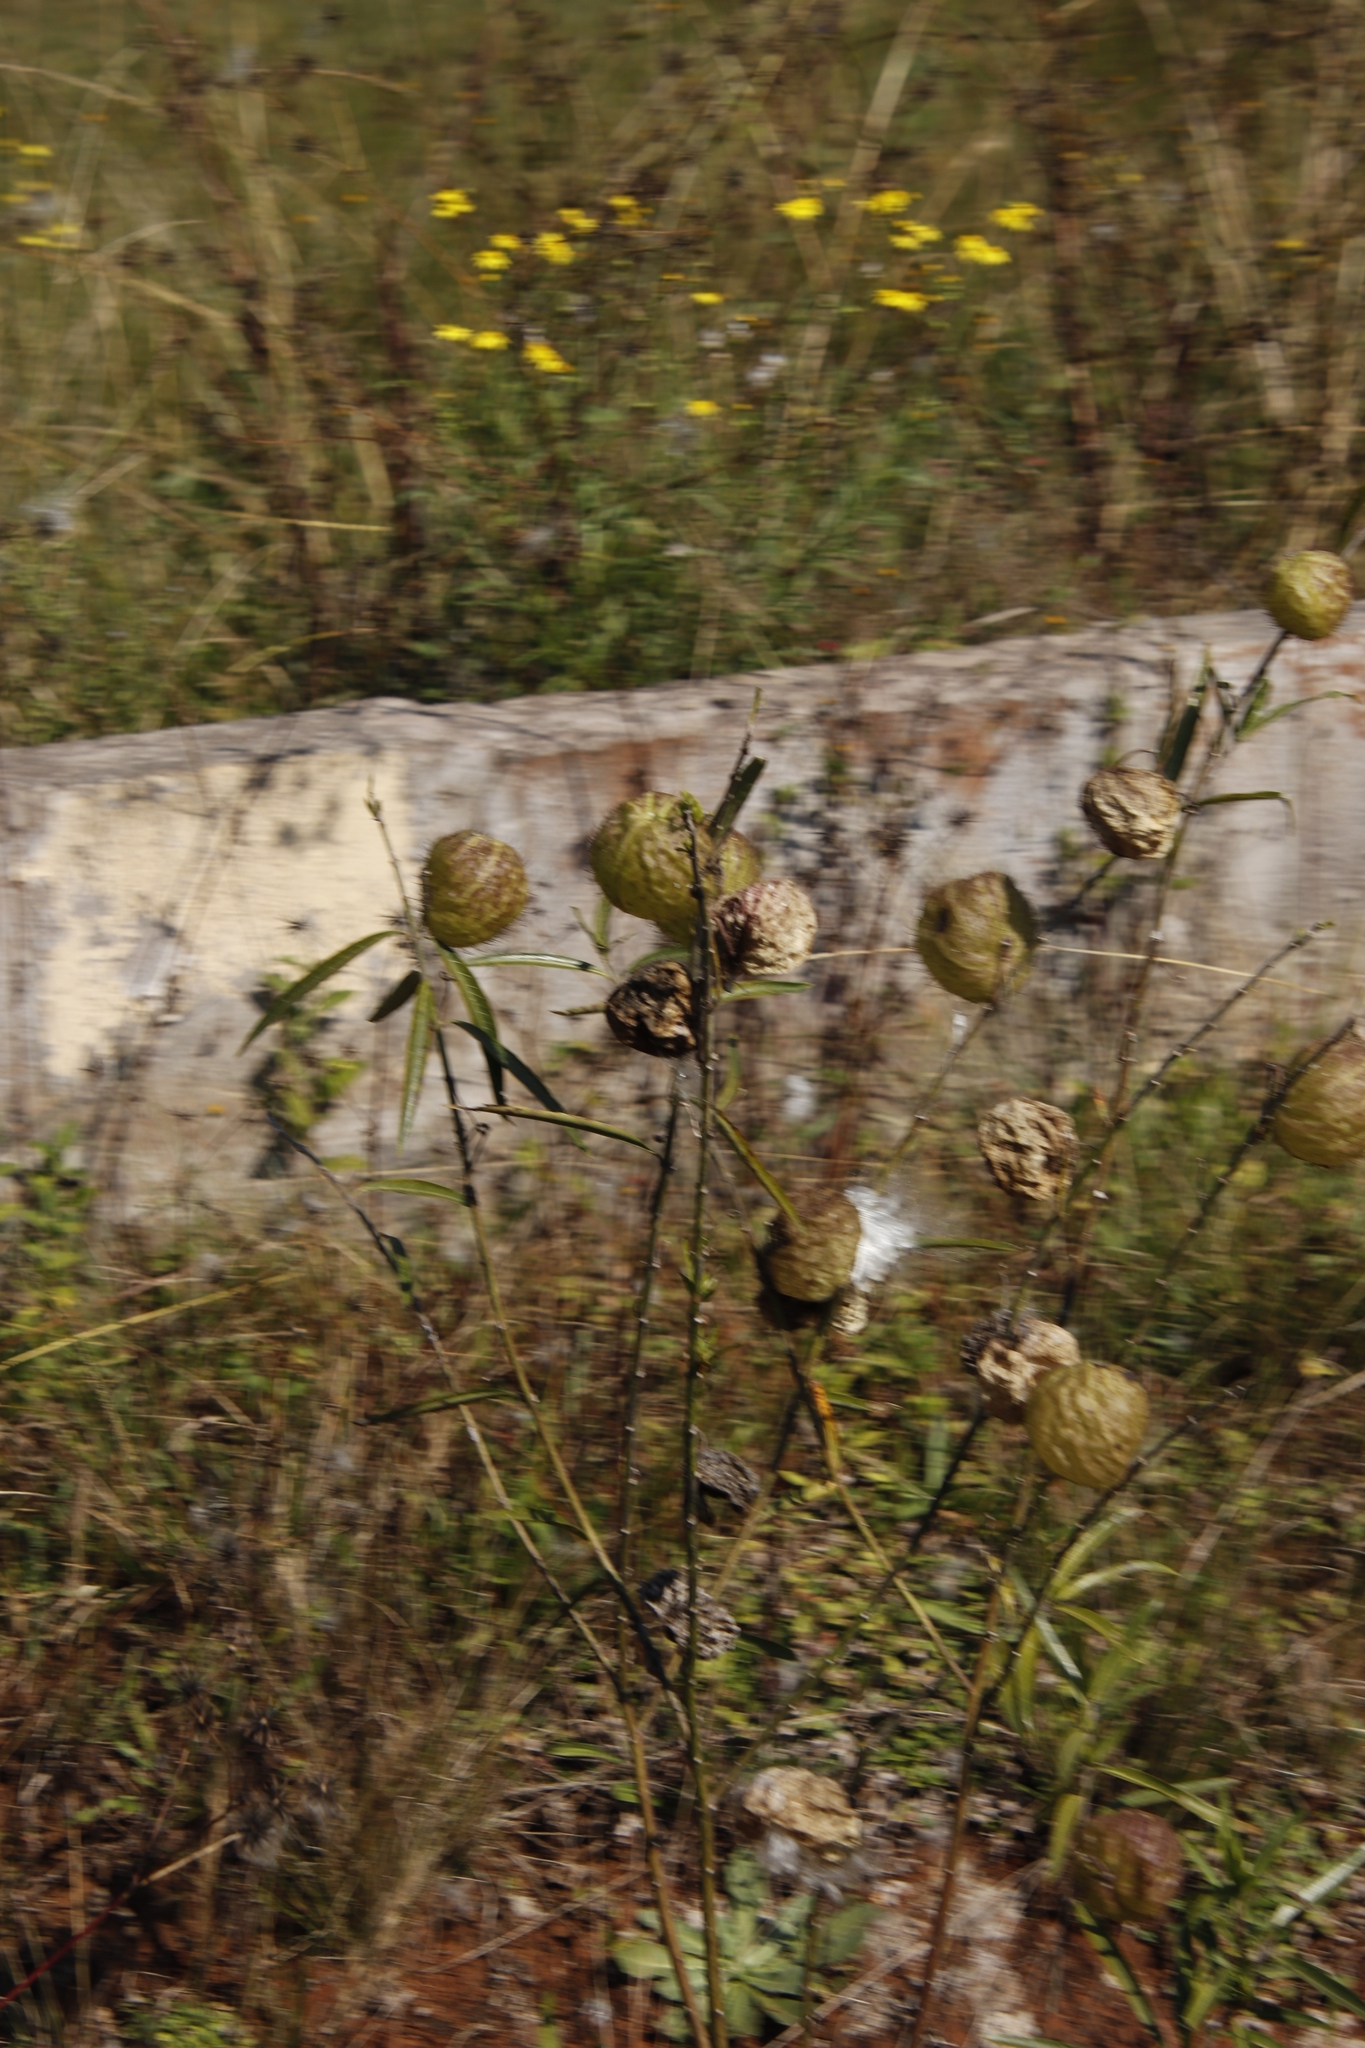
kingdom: Plantae
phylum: Tracheophyta
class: Magnoliopsida
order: Gentianales
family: Apocynaceae
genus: Gomphocarpus
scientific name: Gomphocarpus physocarpus
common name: Balloon cotton bush
